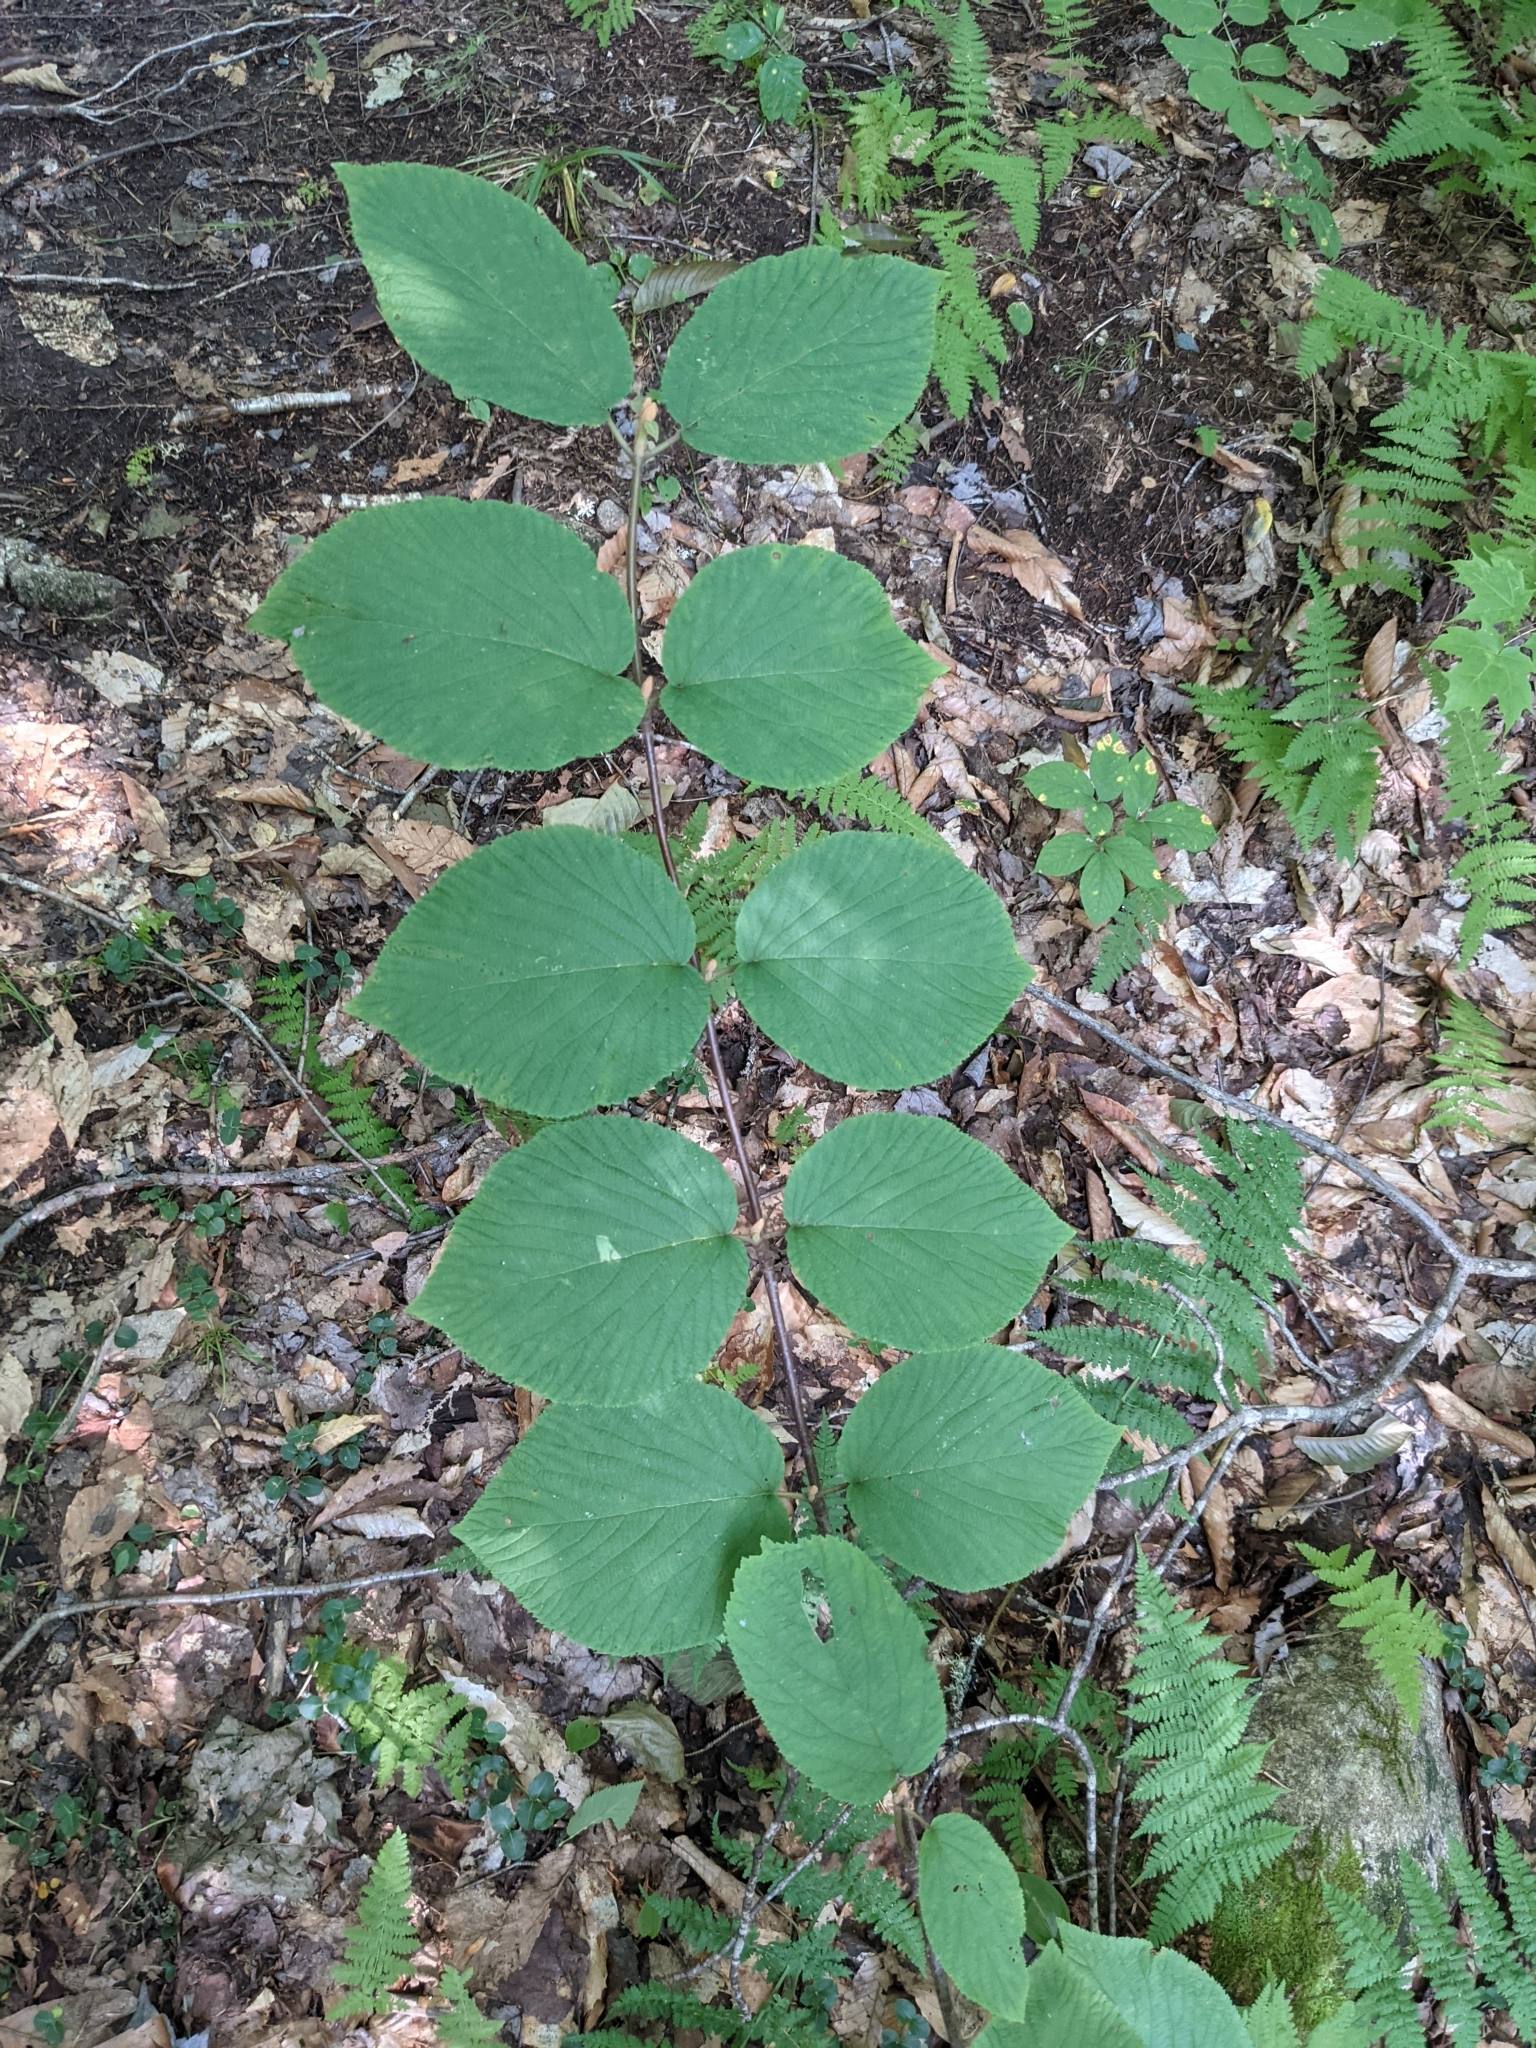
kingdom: Plantae
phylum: Tracheophyta
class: Magnoliopsida
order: Dipsacales
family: Viburnaceae
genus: Viburnum
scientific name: Viburnum lantanoides
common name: Hobblebush
